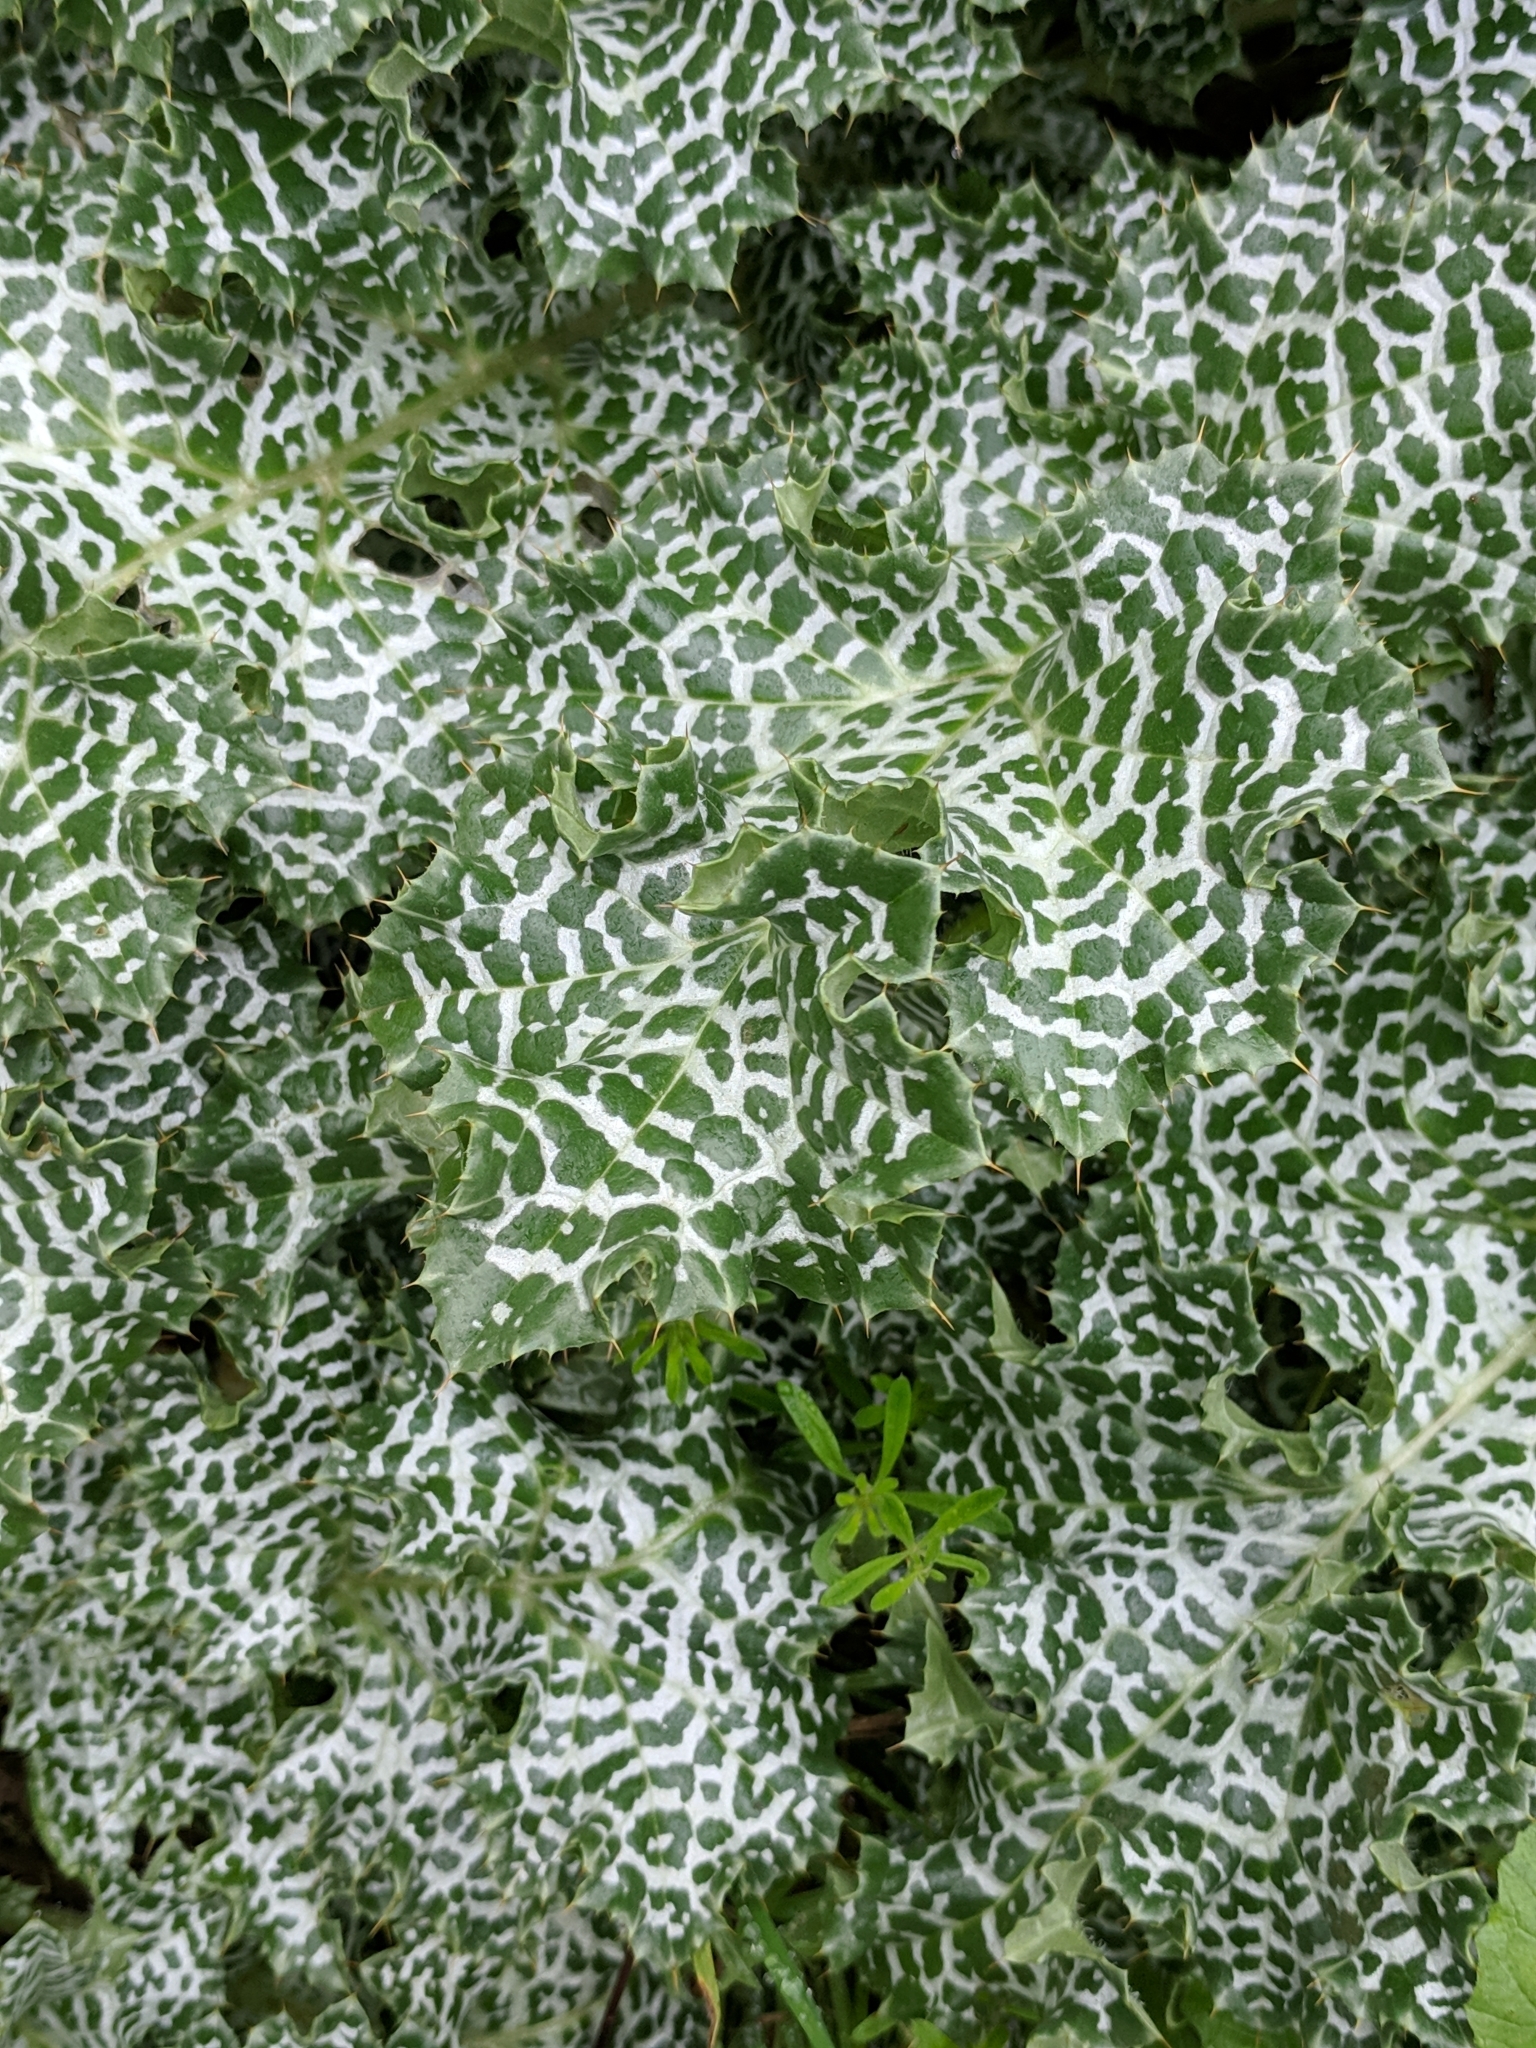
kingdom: Plantae
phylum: Tracheophyta
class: Magnoliopsida
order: Asterales
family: Asteraceae
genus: Silybum
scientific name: Silybum marianum
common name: Milk thistle
